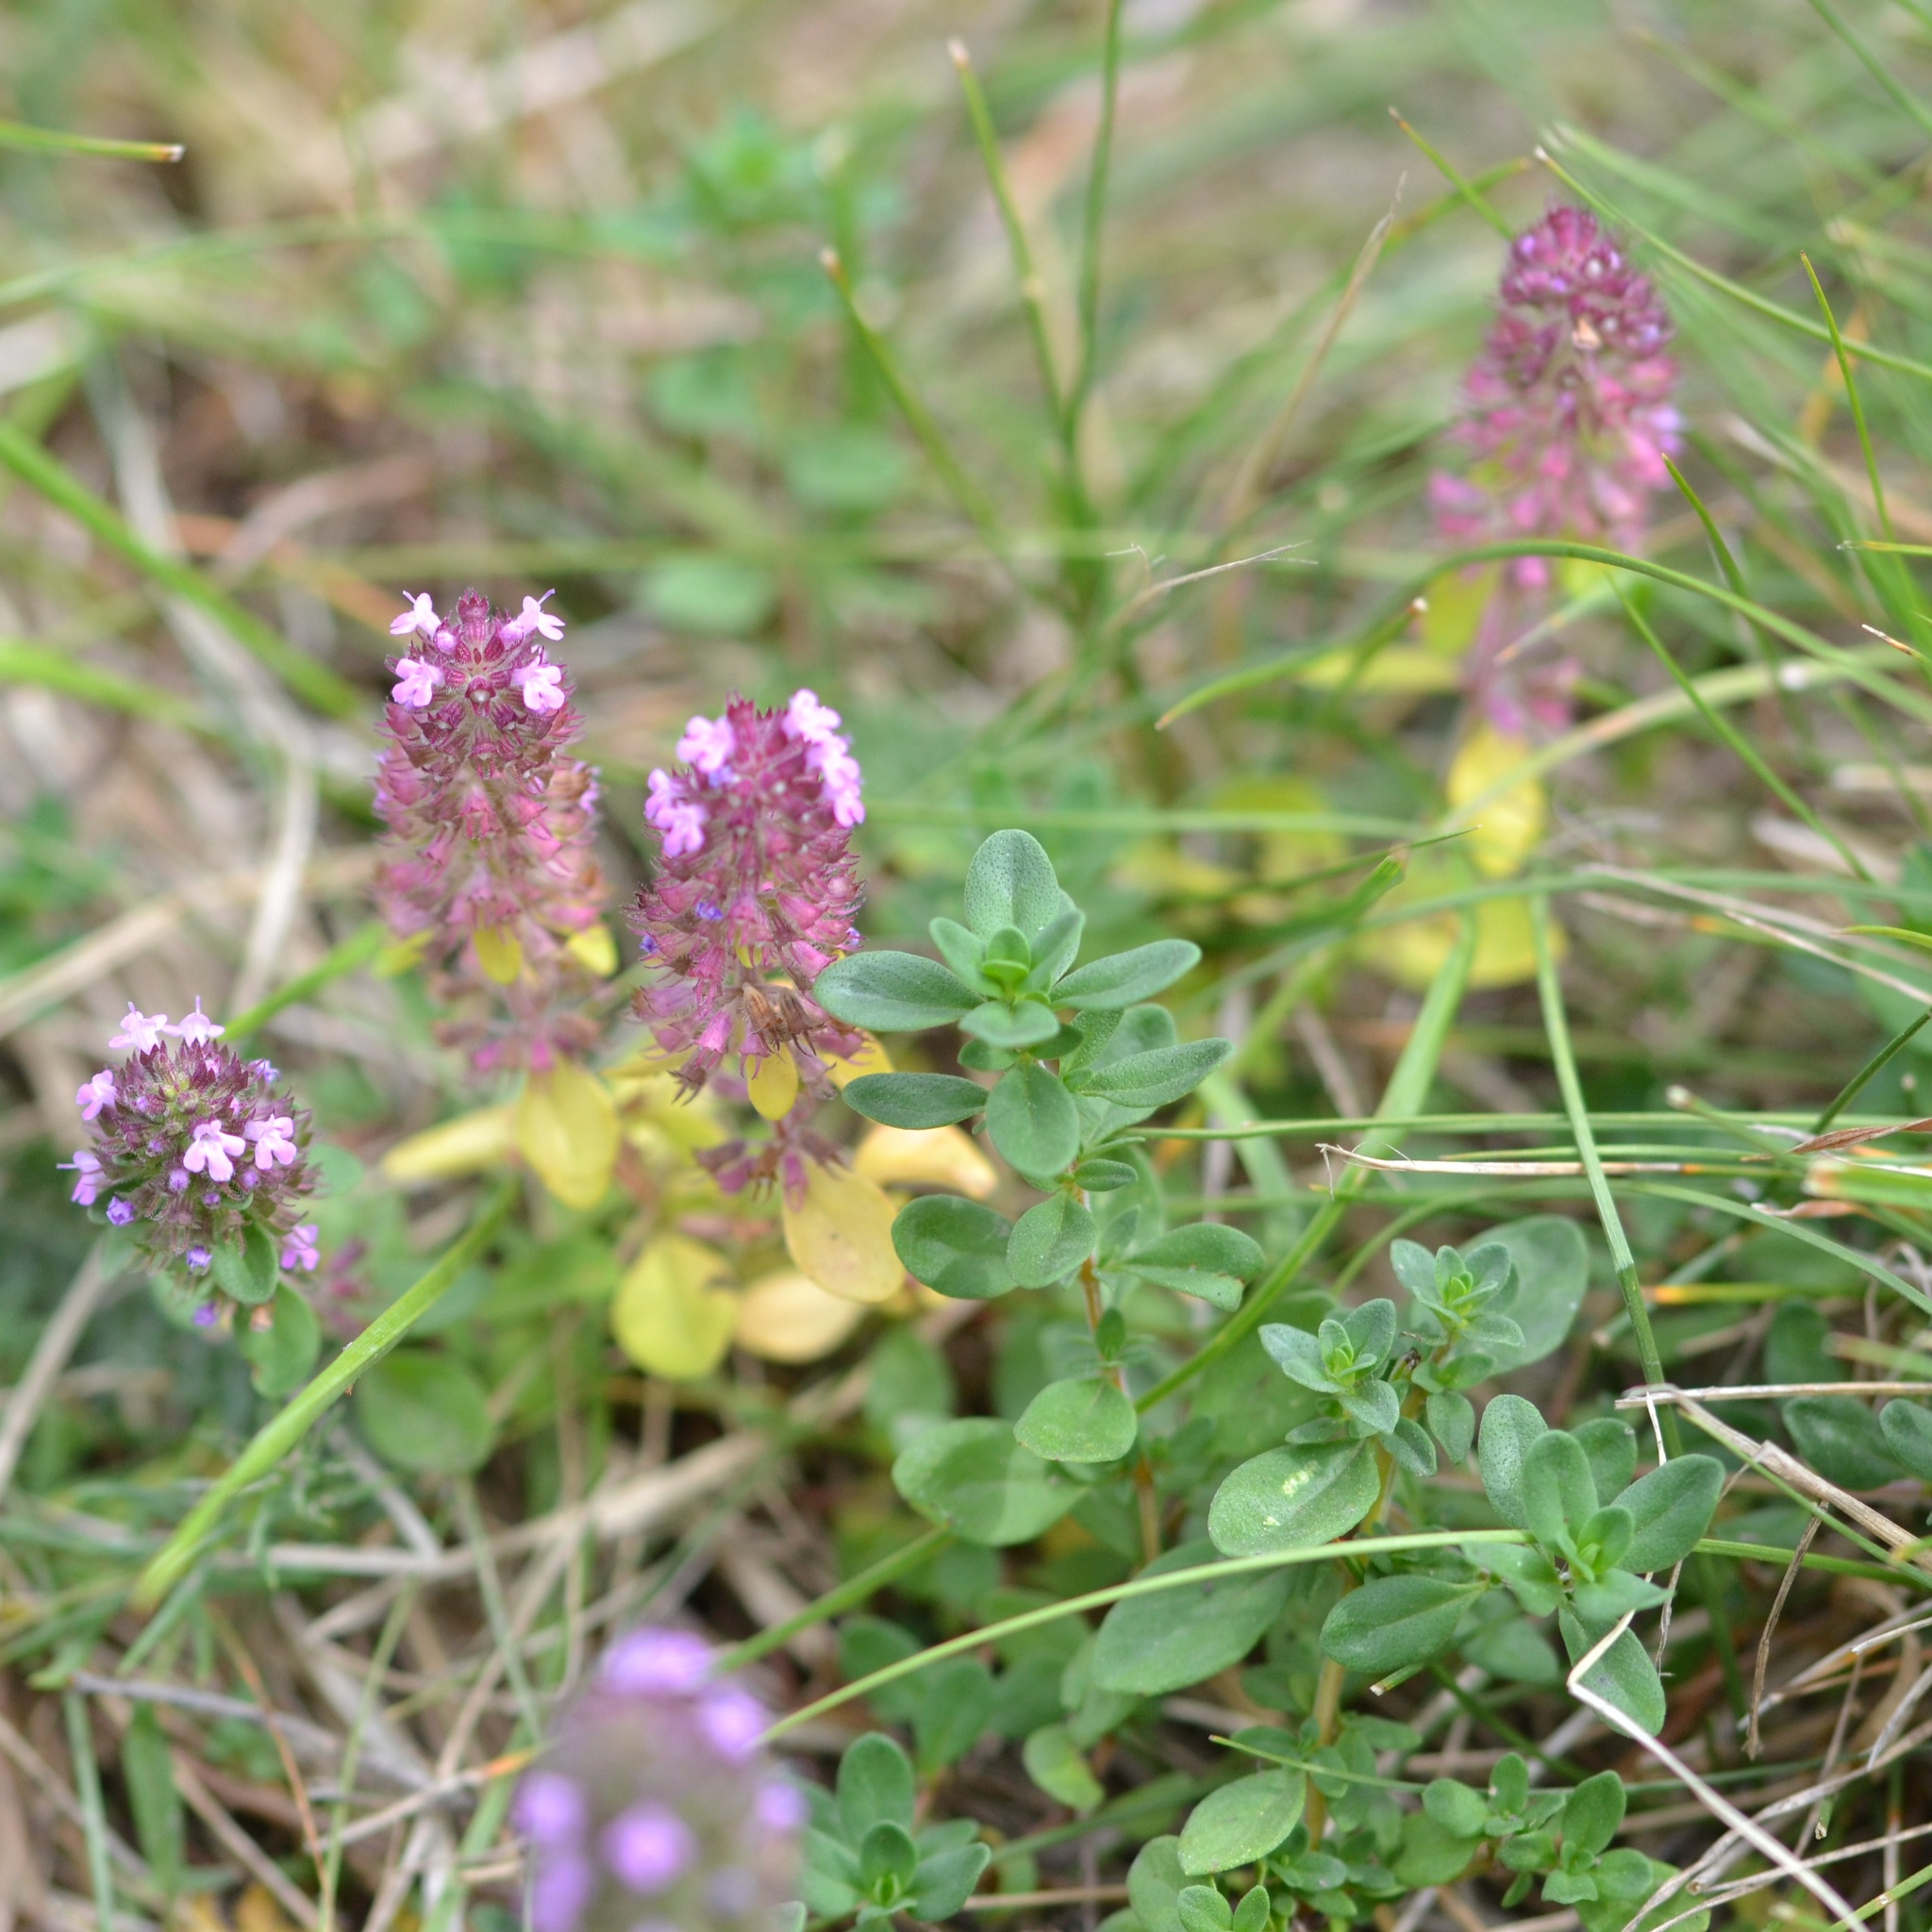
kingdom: Plantae
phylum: Tracheophyta
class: Magnoliopsida
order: Lamiales
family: Lamiaceae
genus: Thymus
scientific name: Thymus pulegioides
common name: Large thyme
